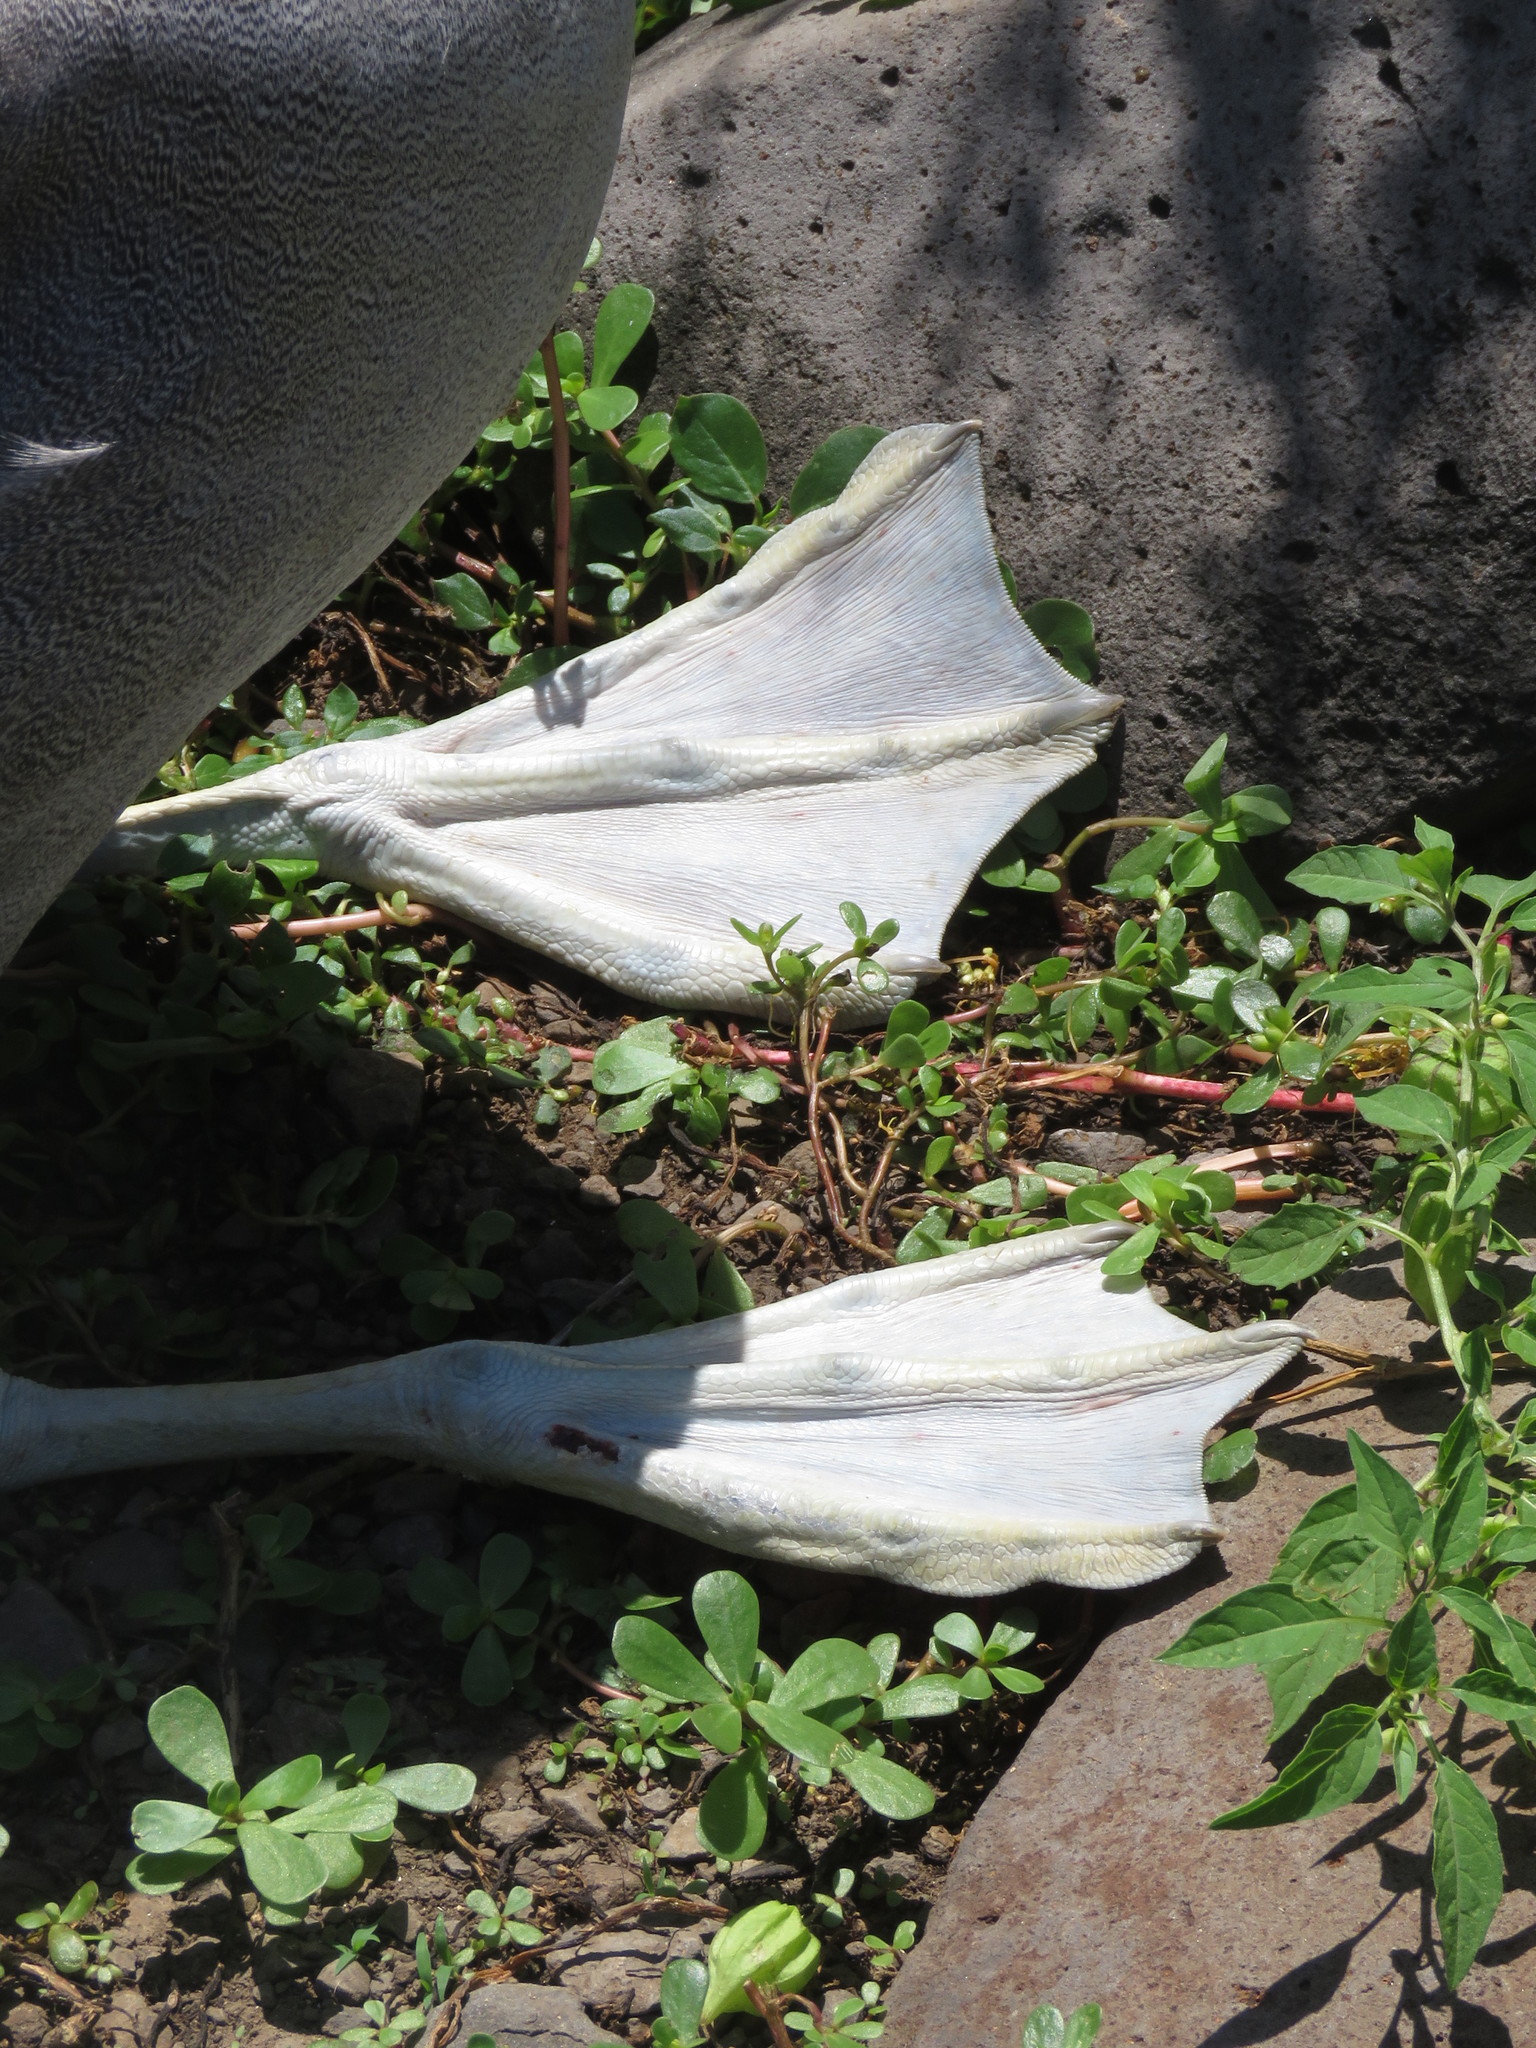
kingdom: Animalia
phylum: Chordata
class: Aves
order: Procellariiformes
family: Diomedeidae
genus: Phoebastria
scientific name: Phoebastria irrorata
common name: Waved albatross
